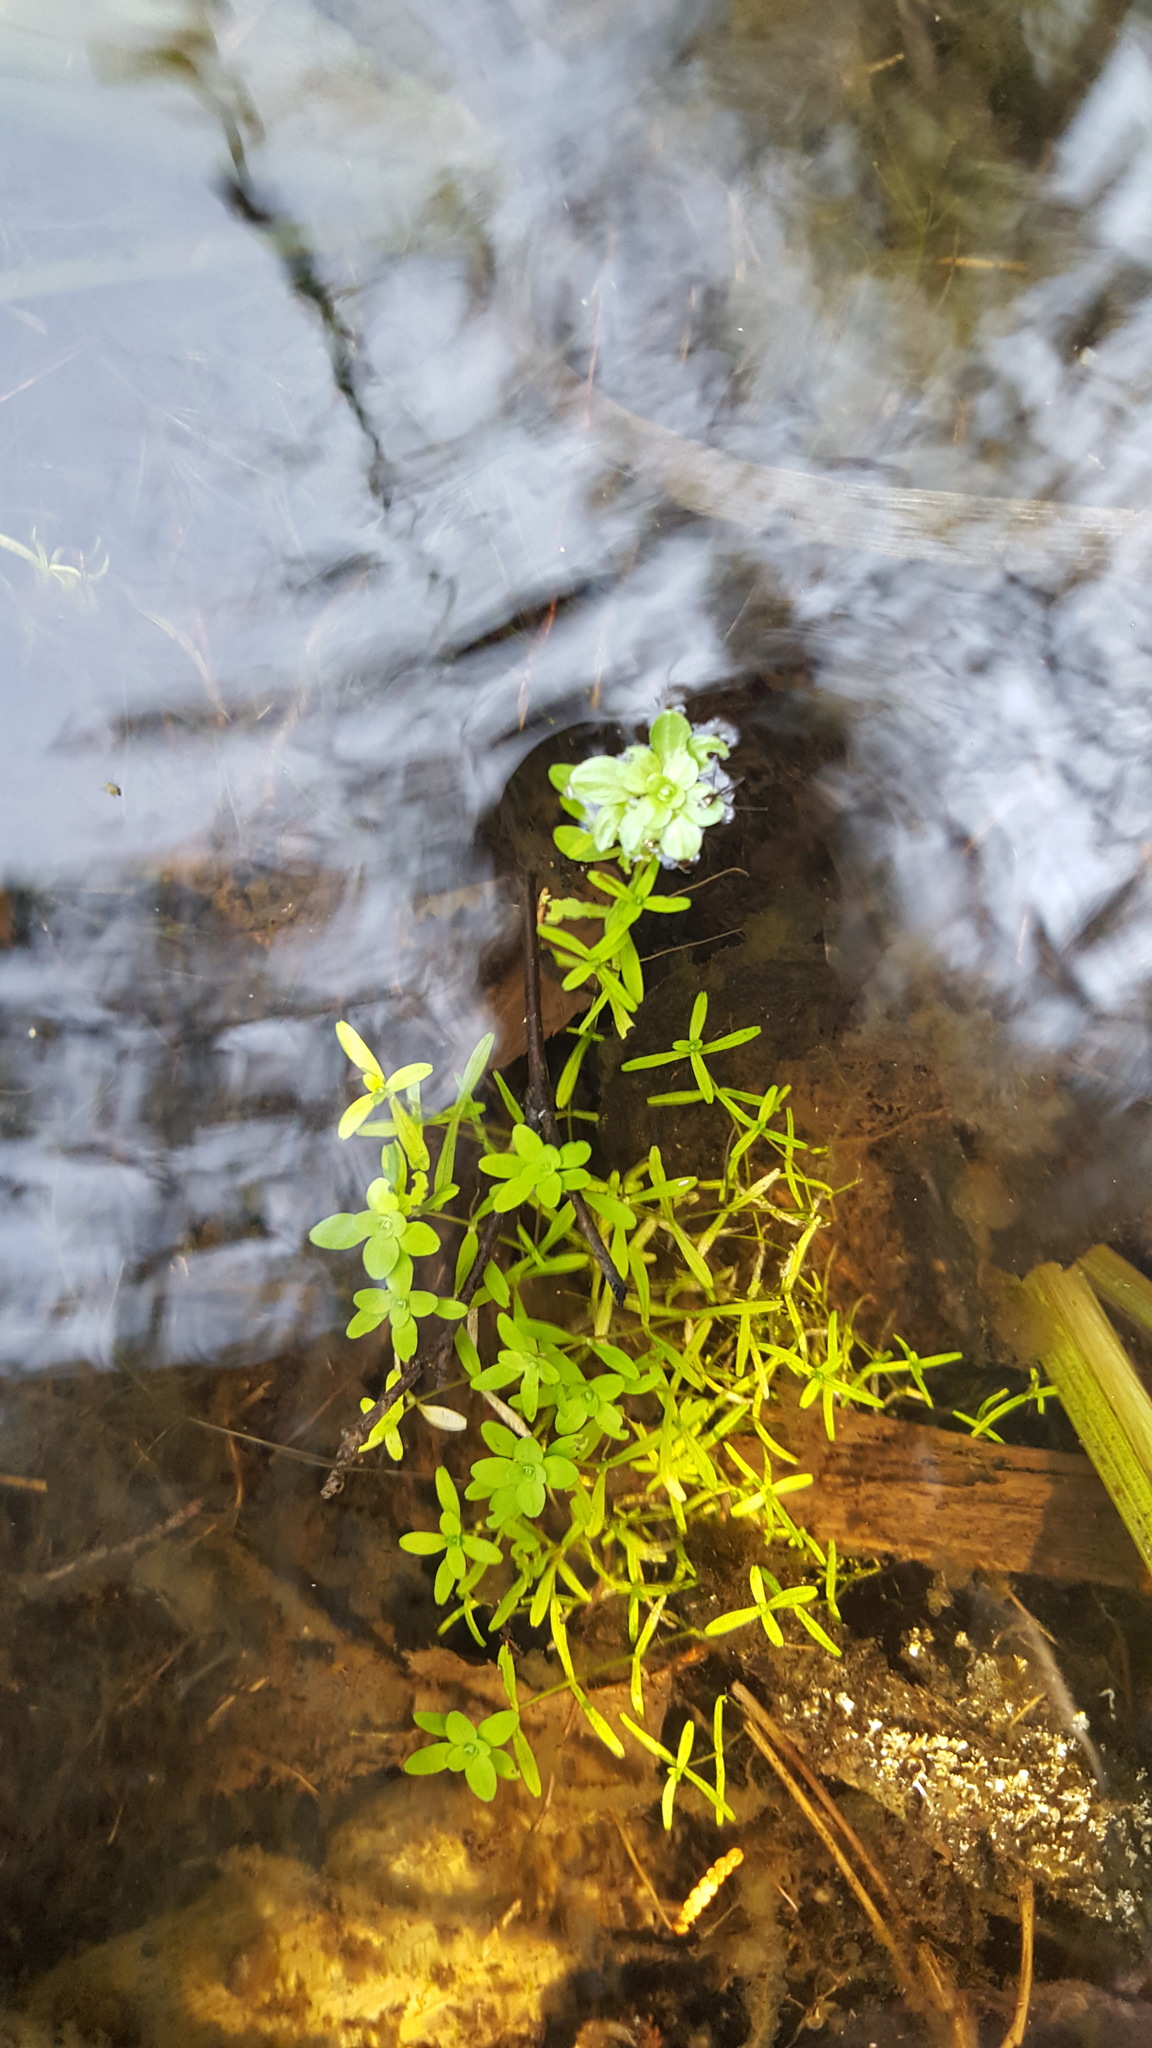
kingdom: Plantae
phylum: Tracheophyta
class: Magnoliopsida
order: Lamiales
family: Plantaginaceae
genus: Callitriche
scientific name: Callitriche palustris
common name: Spring water-starwort
